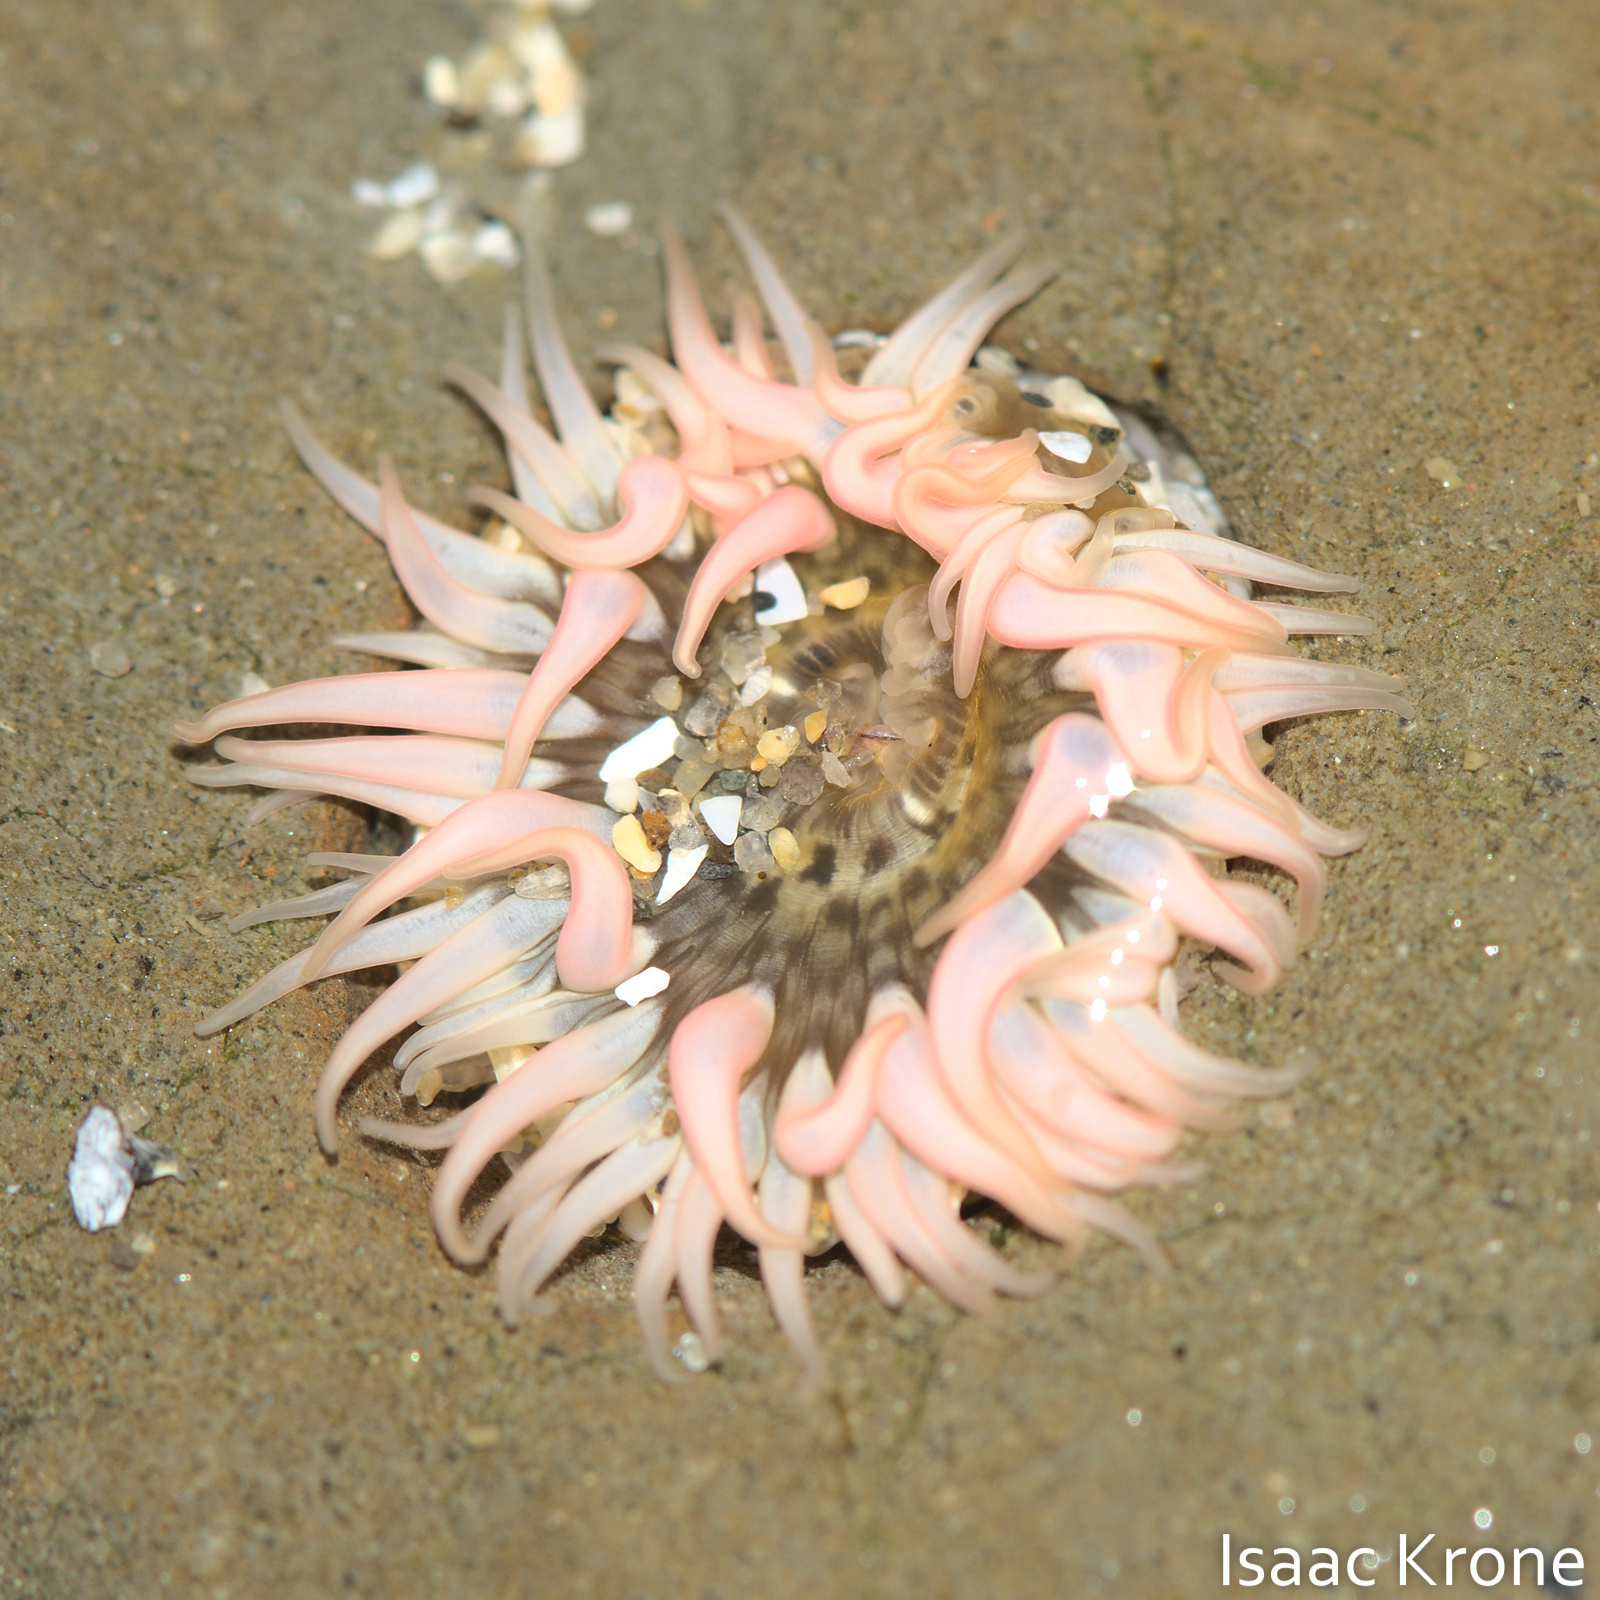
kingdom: Animalia
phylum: Cnidaria
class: Anthozoa
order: Actiniaria
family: Actiniidae
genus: Anthopleura
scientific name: Anthopleura artemisia
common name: Buried sea anemone
